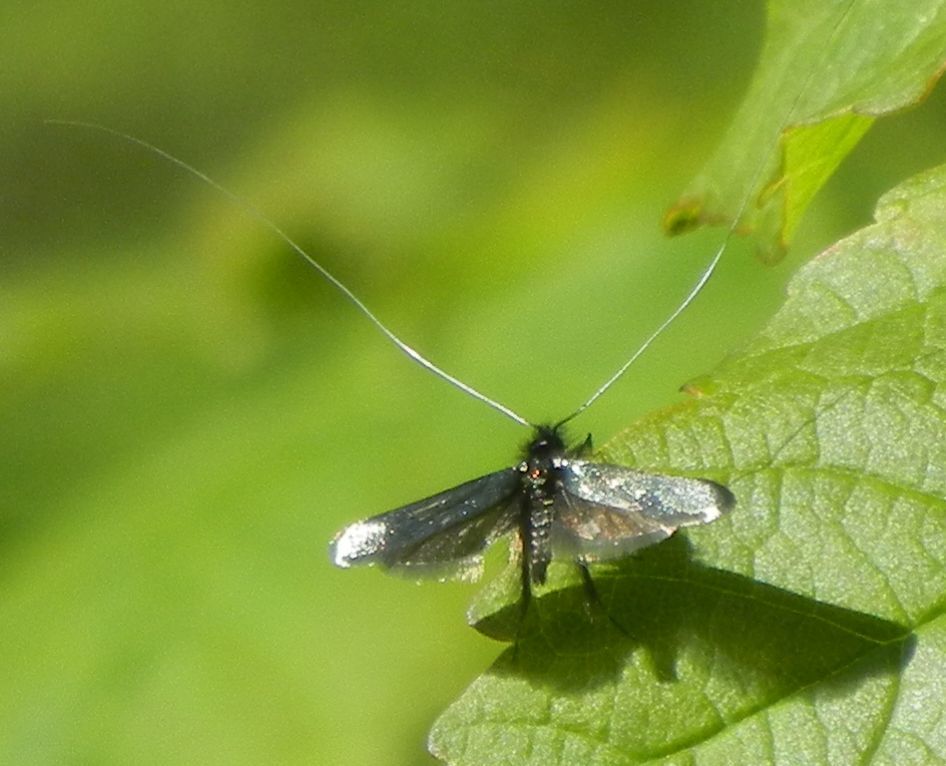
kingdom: Animalia
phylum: Arthropoda
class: Insecta
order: Lepidoptera
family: Adelidae
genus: Adela
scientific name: Adela viridella
